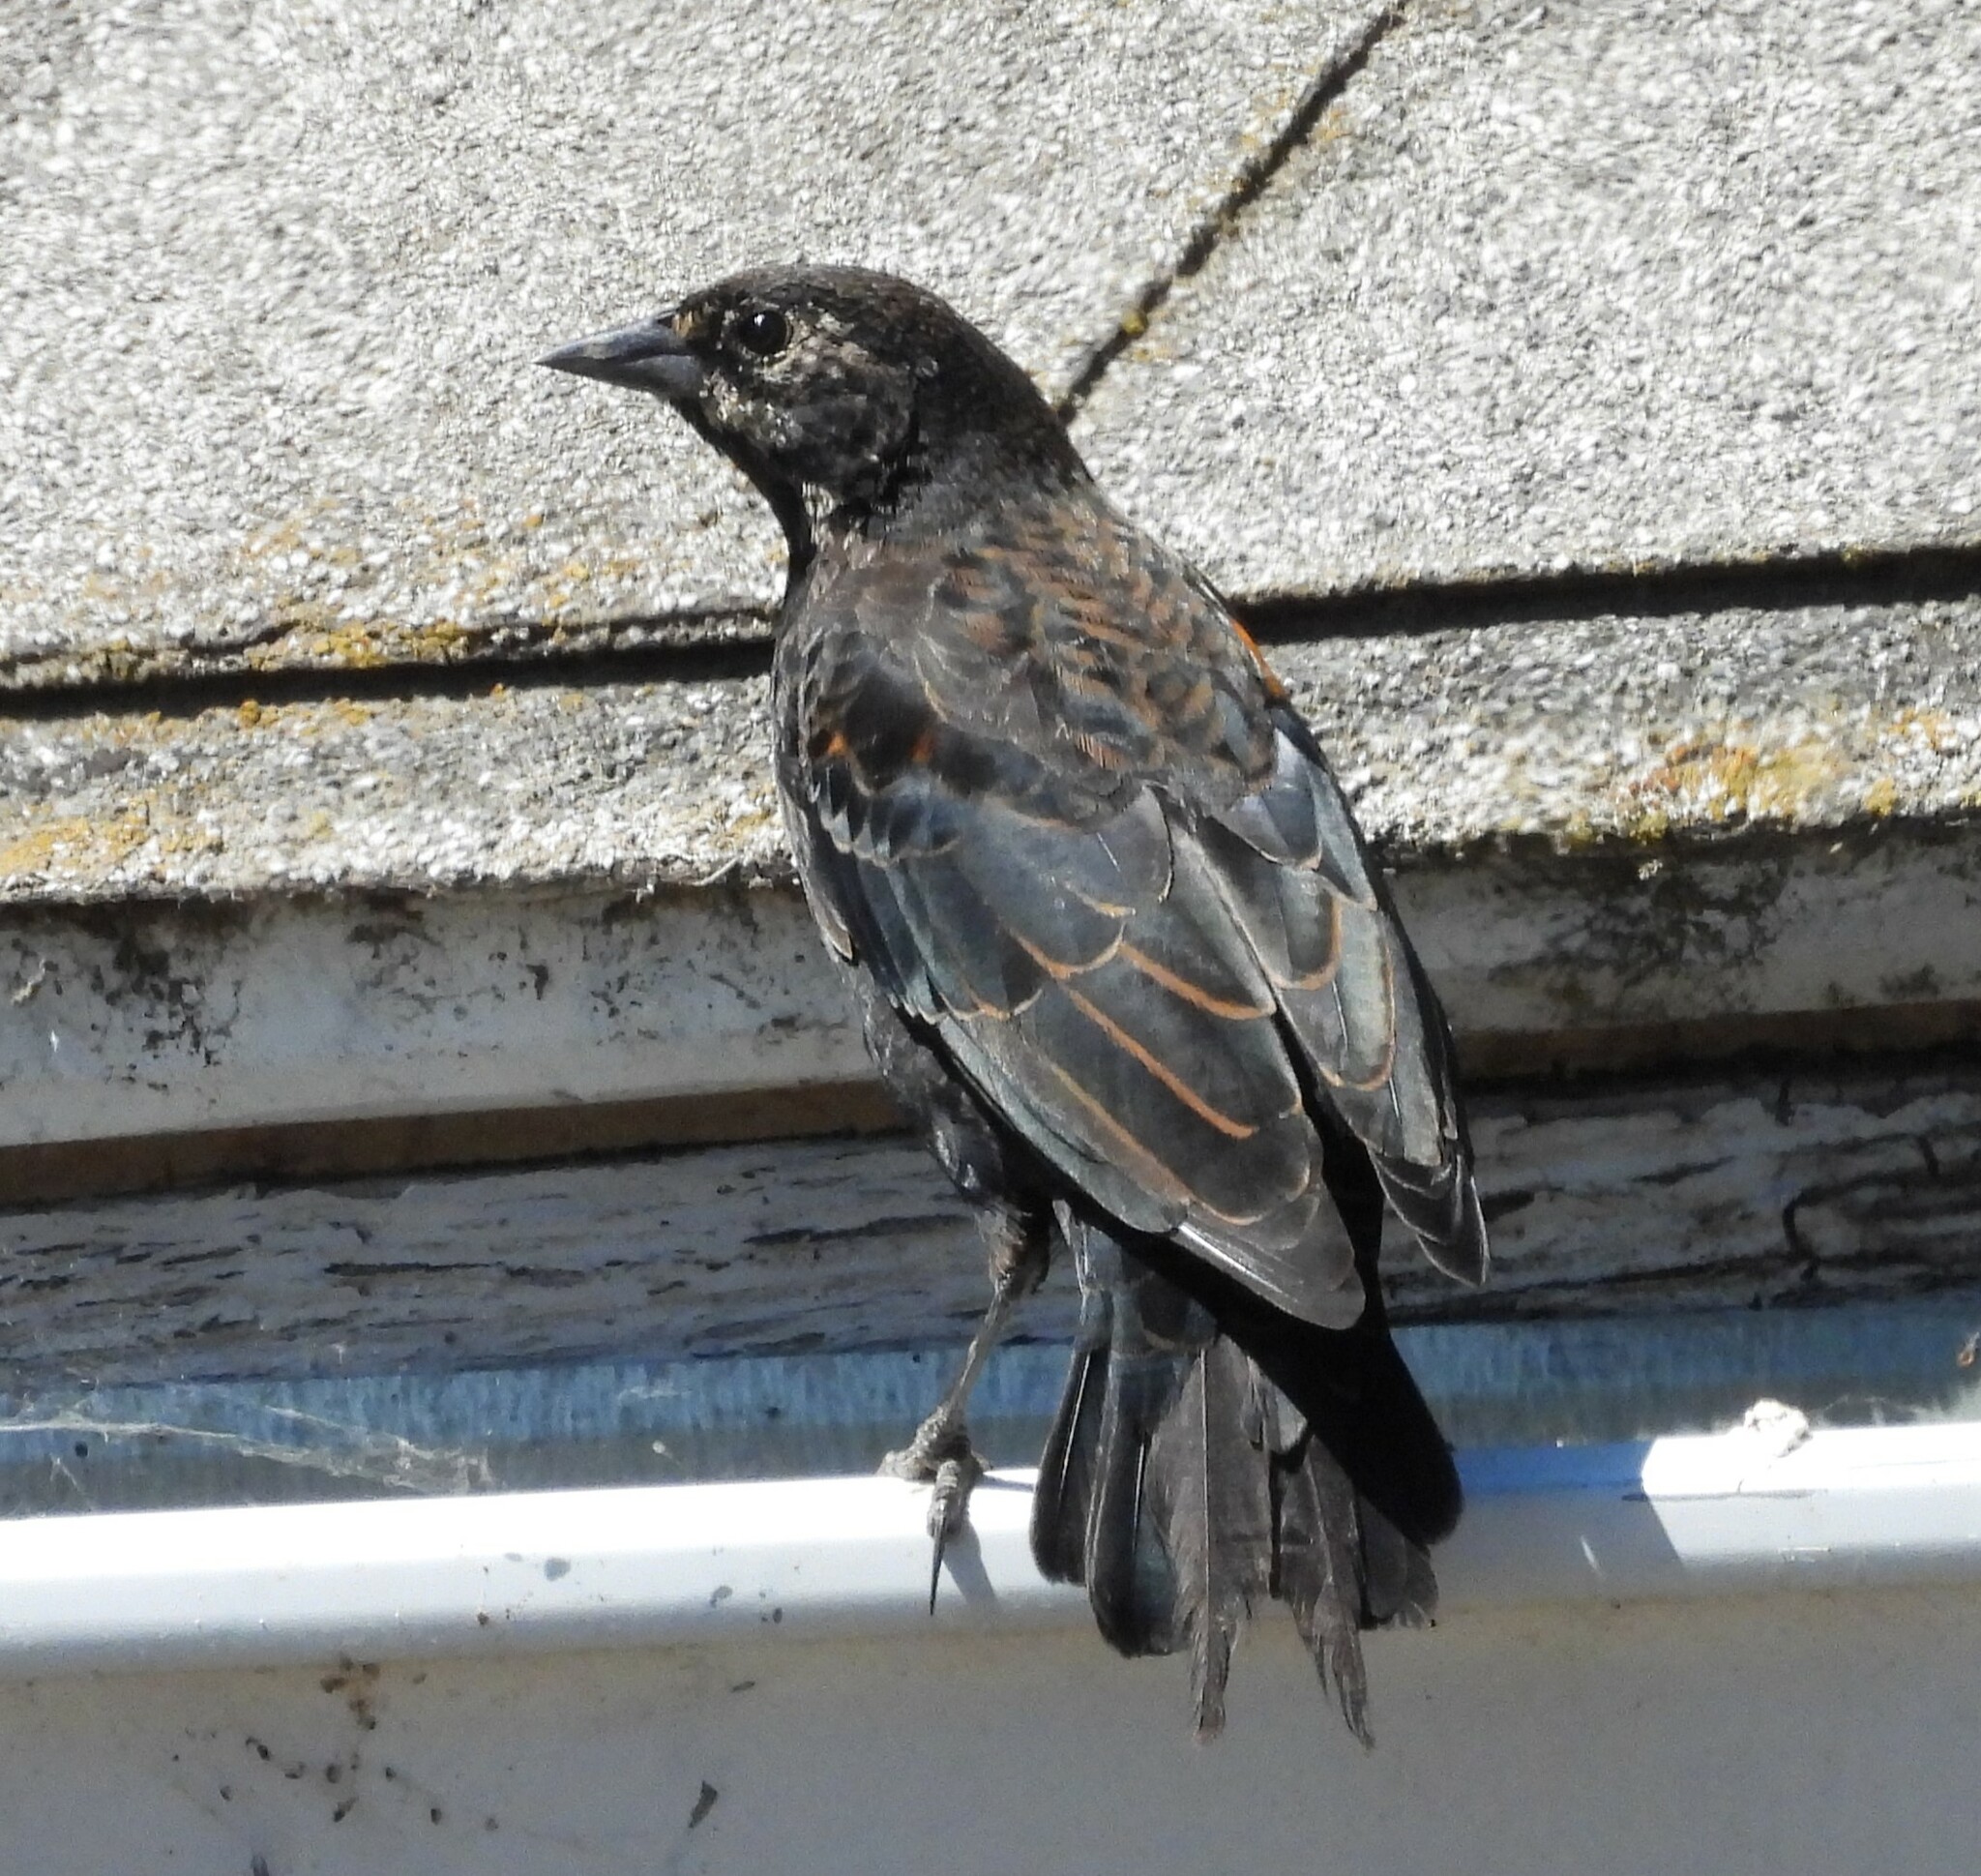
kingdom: Animalia
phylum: Chordata
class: Aves
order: Passeriformes
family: Icteridae
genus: Agelaius
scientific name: Agelaius
